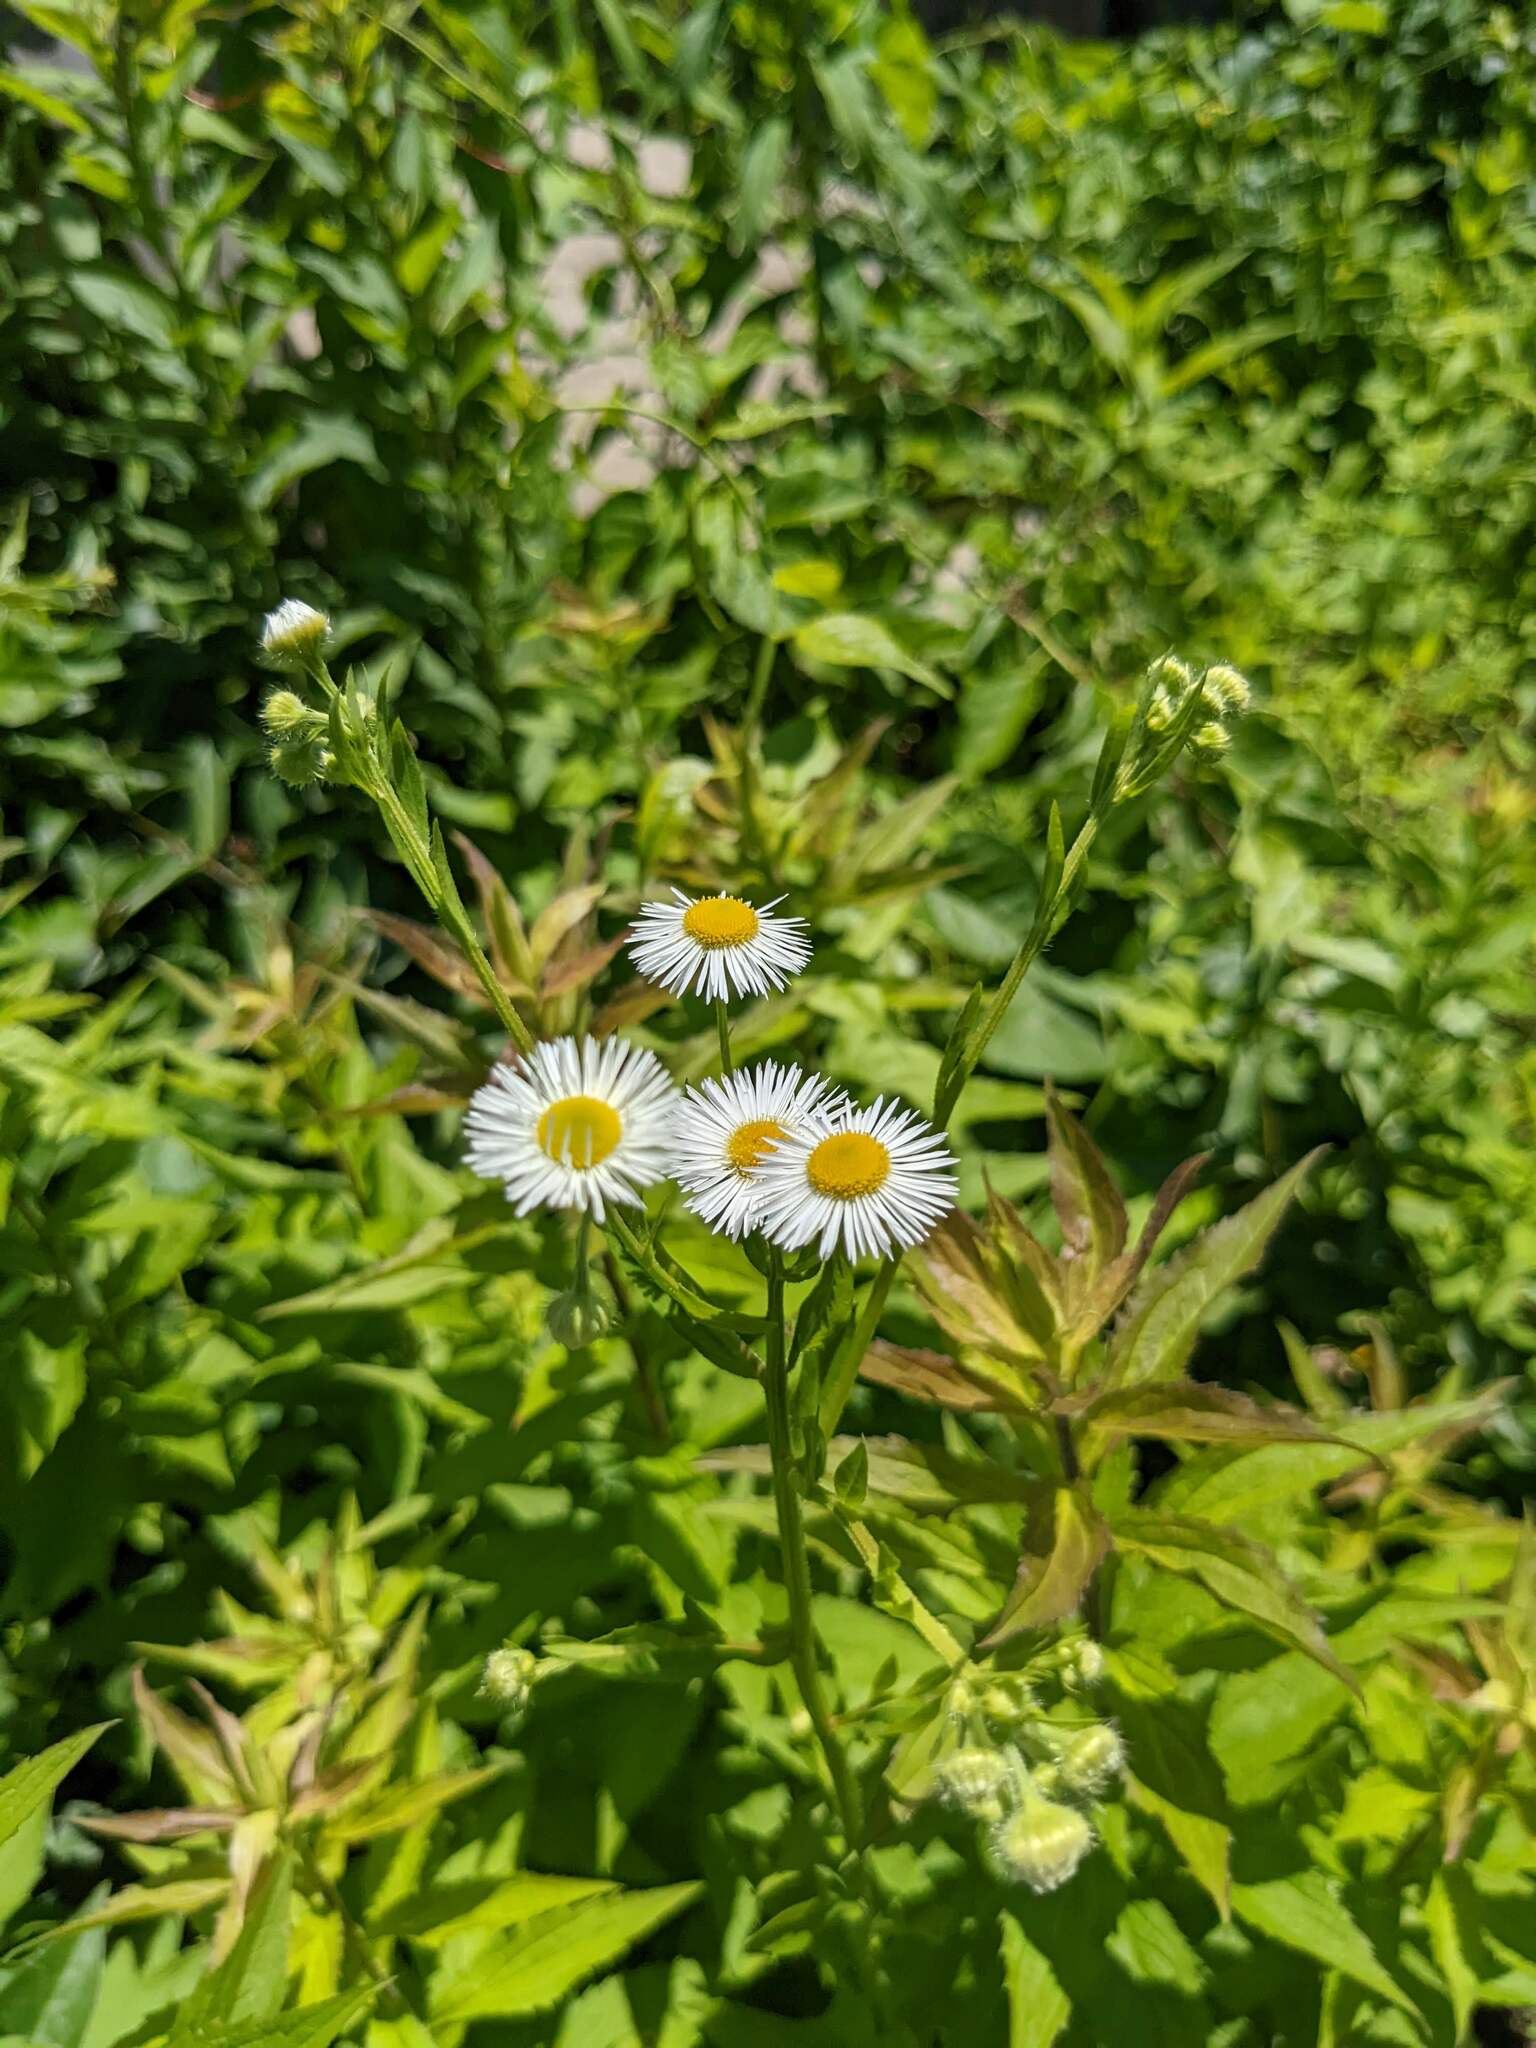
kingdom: Plantae
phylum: Tracheophyta
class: Magnoliopsida
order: Asterales
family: Asteraceae
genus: Erigeron
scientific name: Erigeron philadelphicus
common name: Robin's-plantain
